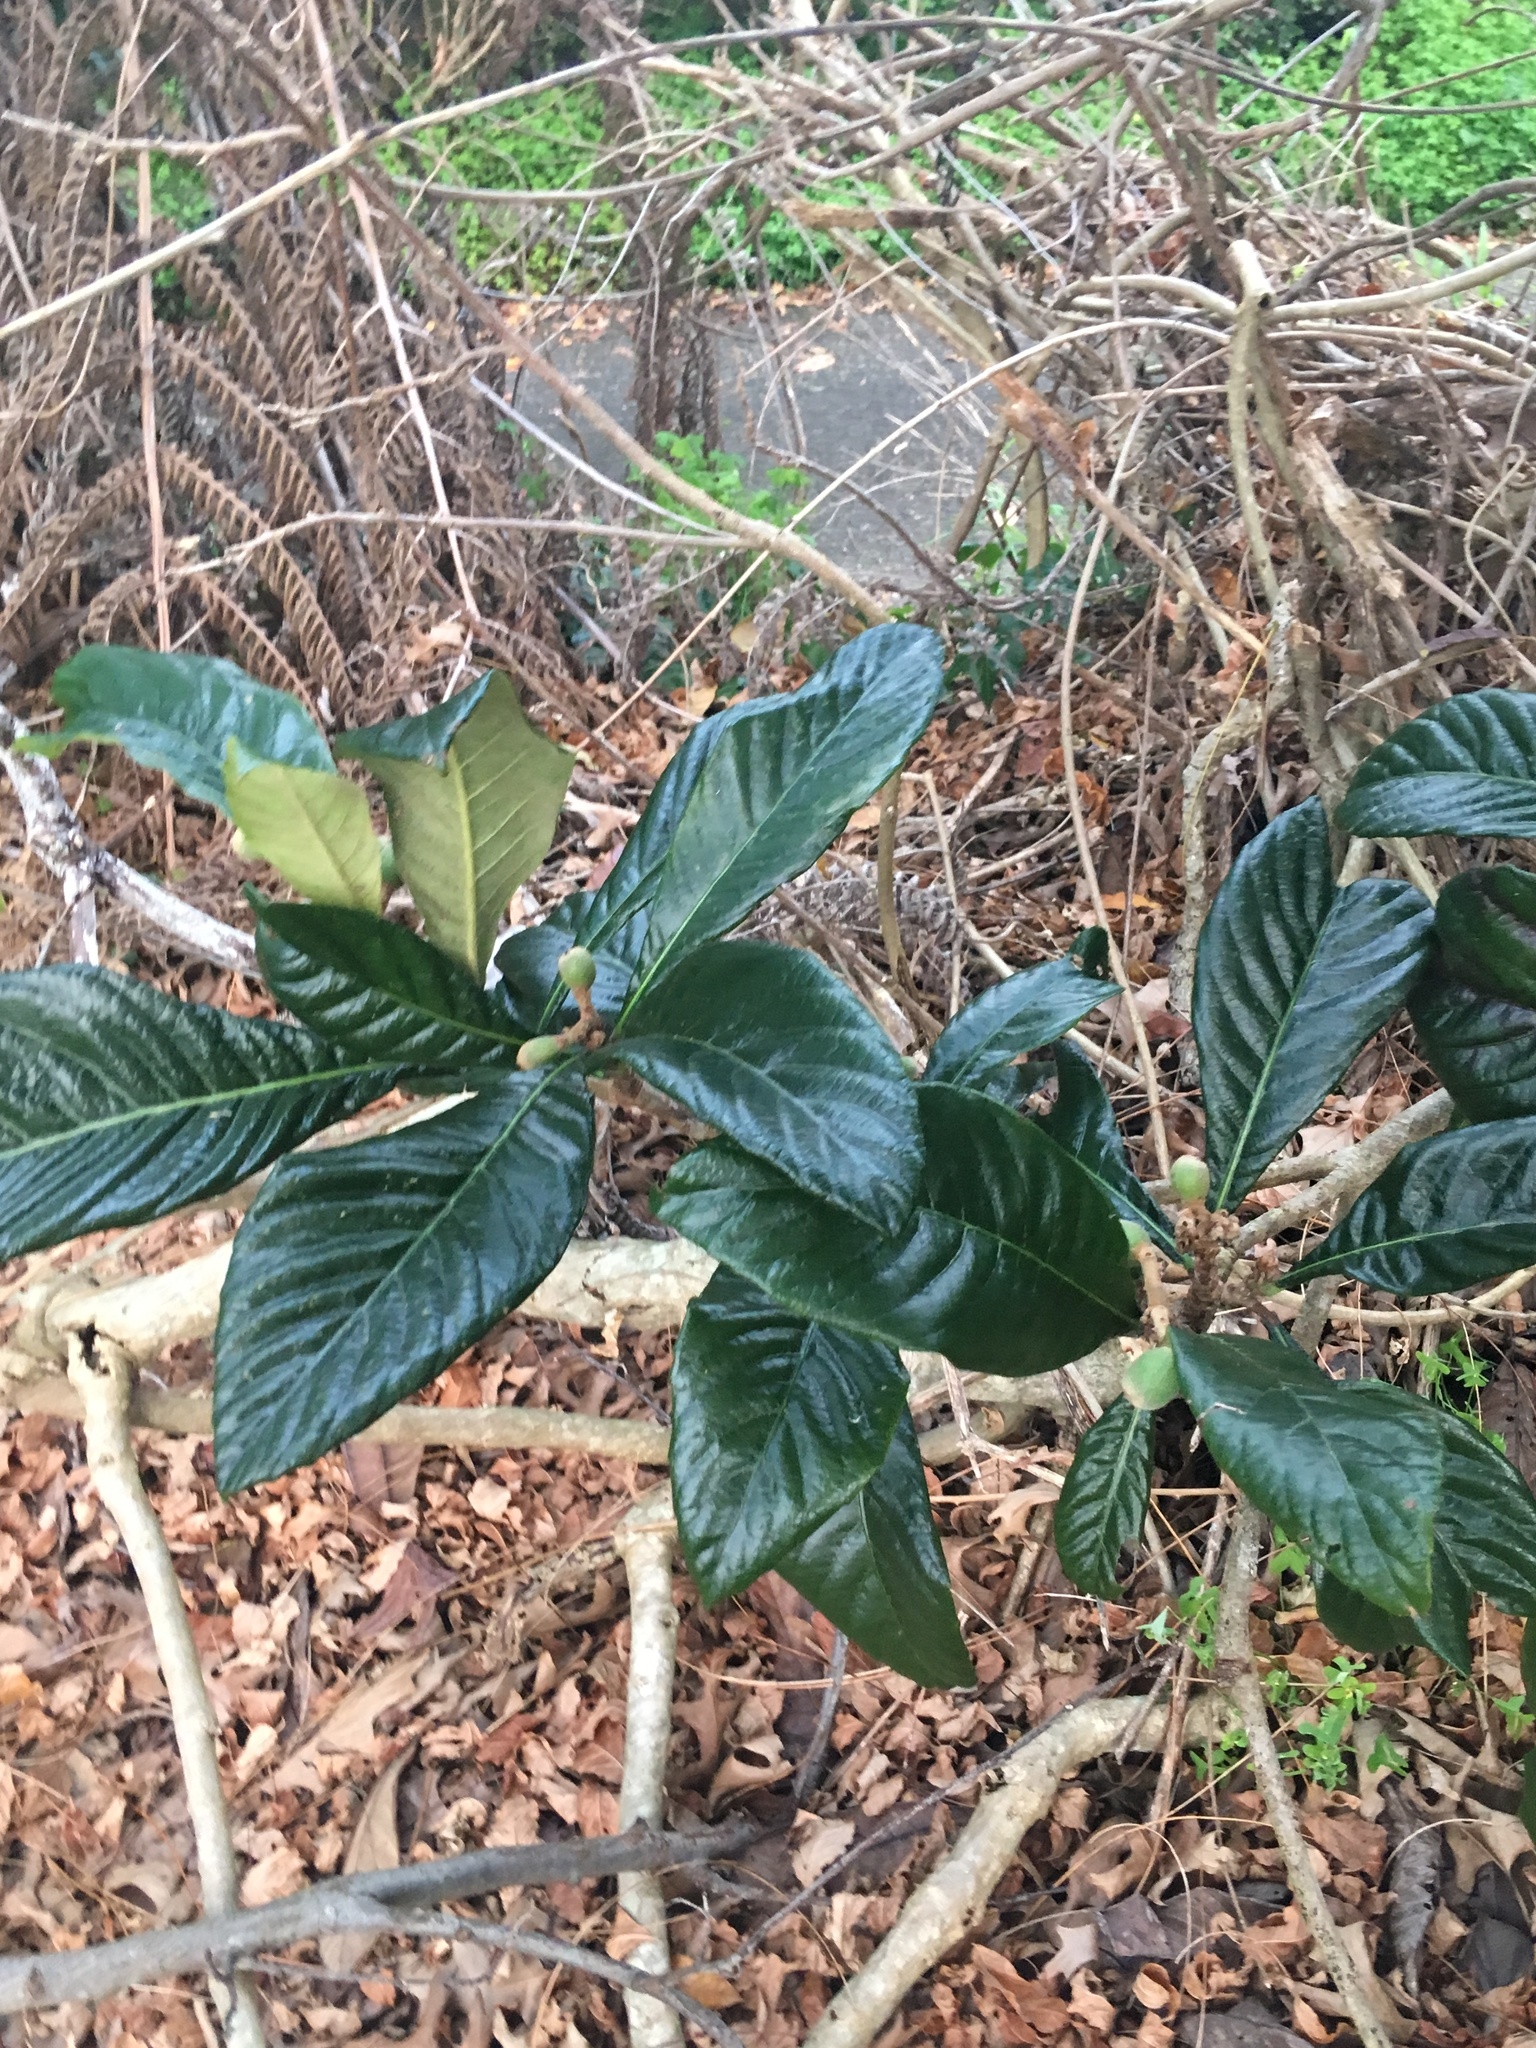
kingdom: Plantae
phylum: Tracheophyta
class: Magnoliopsida
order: Rosales
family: Rosaceae
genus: Rhaphiolepis
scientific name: Rhaphiolepis bibas
